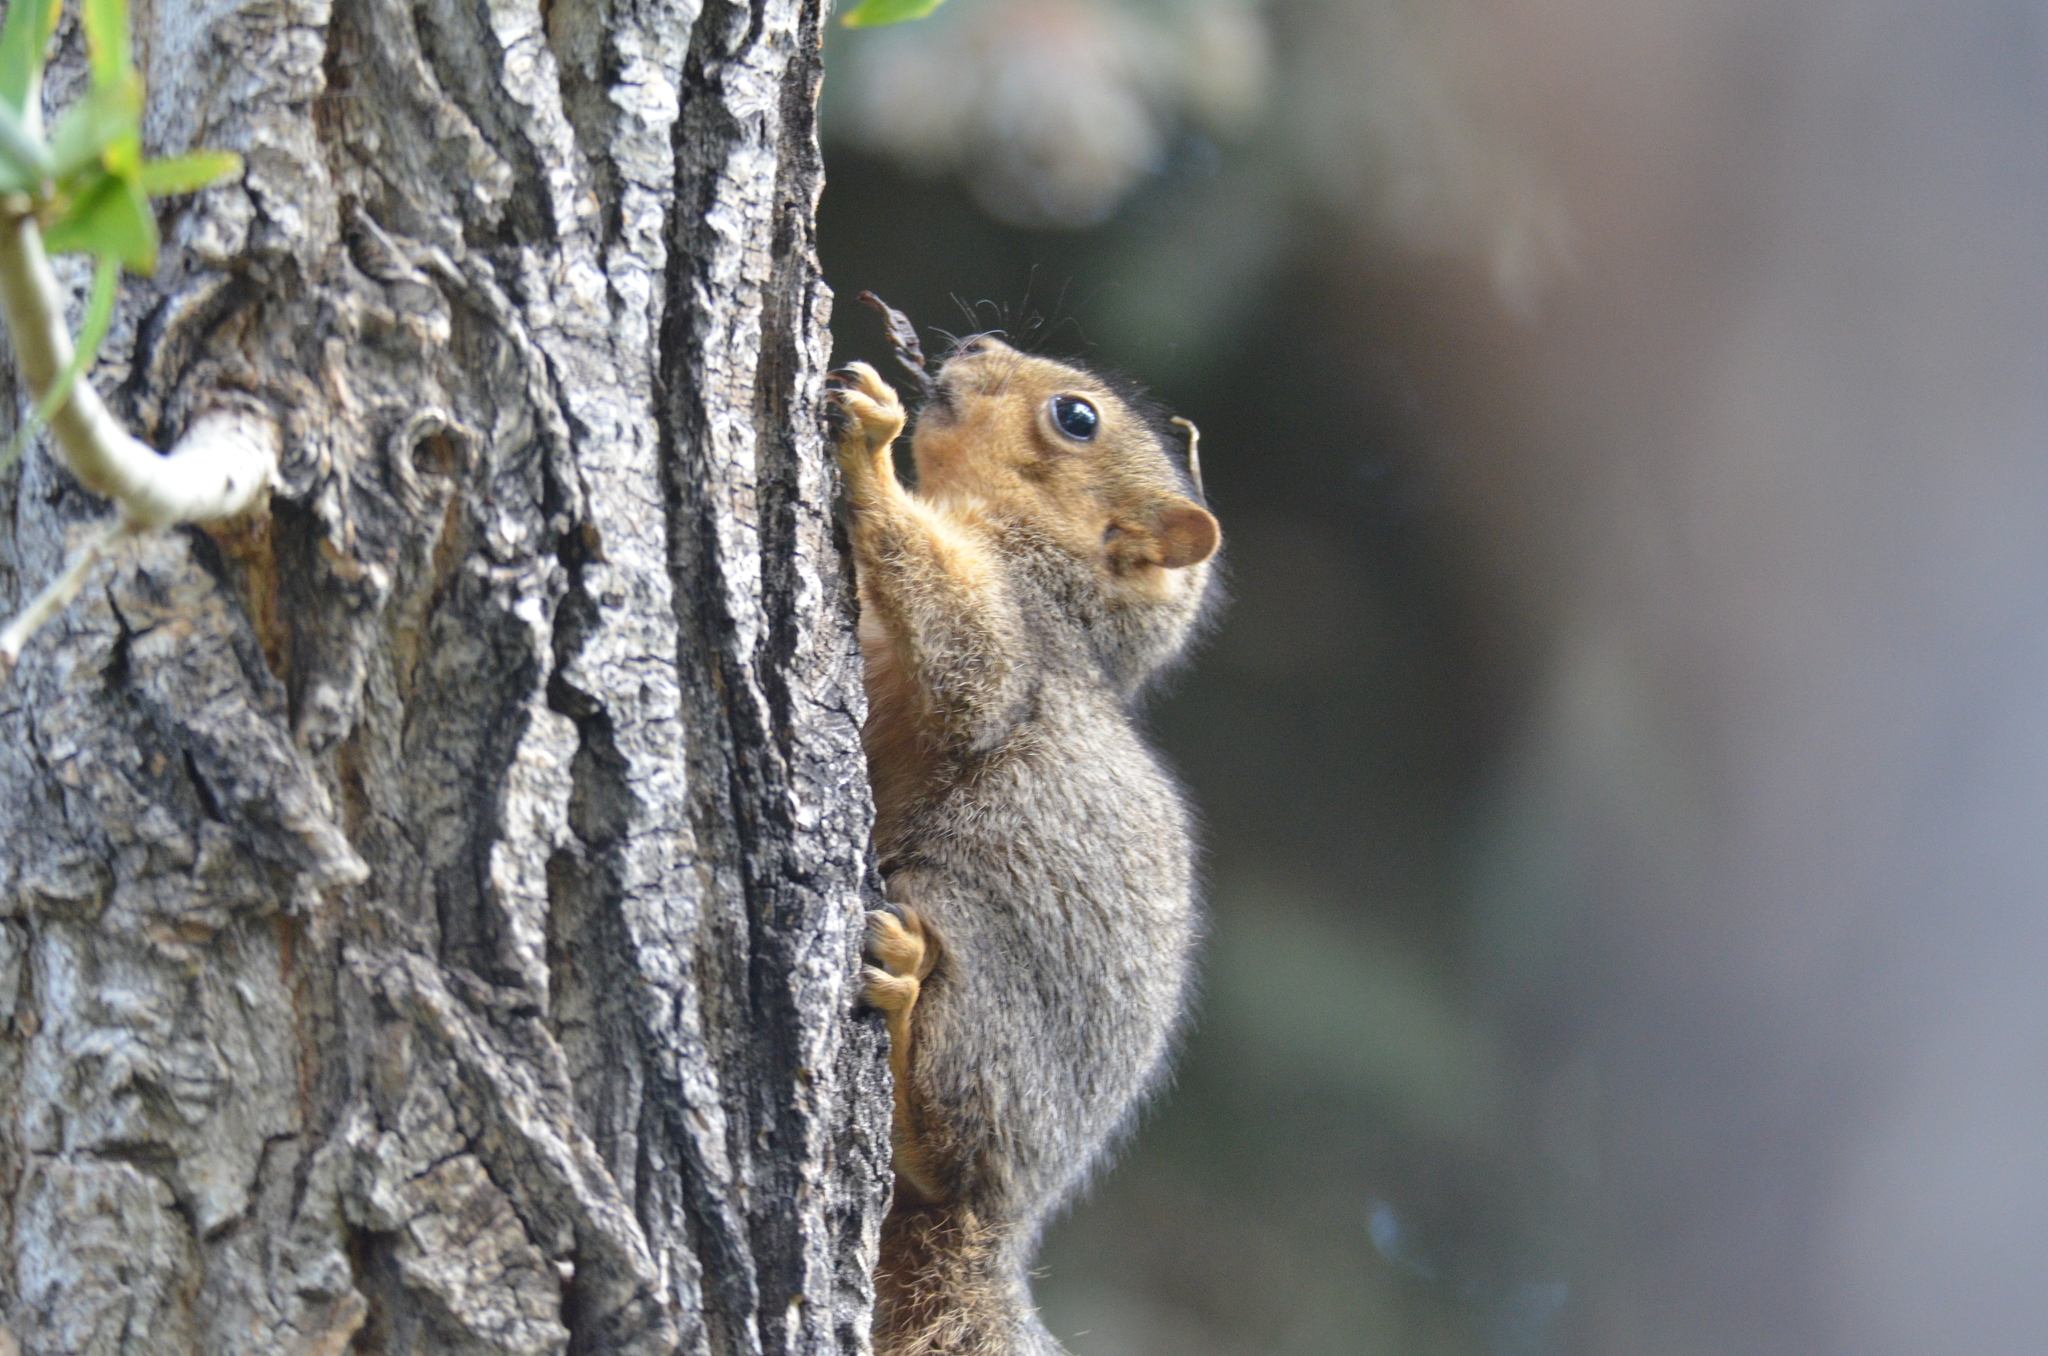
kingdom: Animalia
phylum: Chordata
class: Mammalia
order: Rodentia
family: Sciuridae
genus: Sciurus
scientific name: Sciurus niger
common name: Fox squirrel
